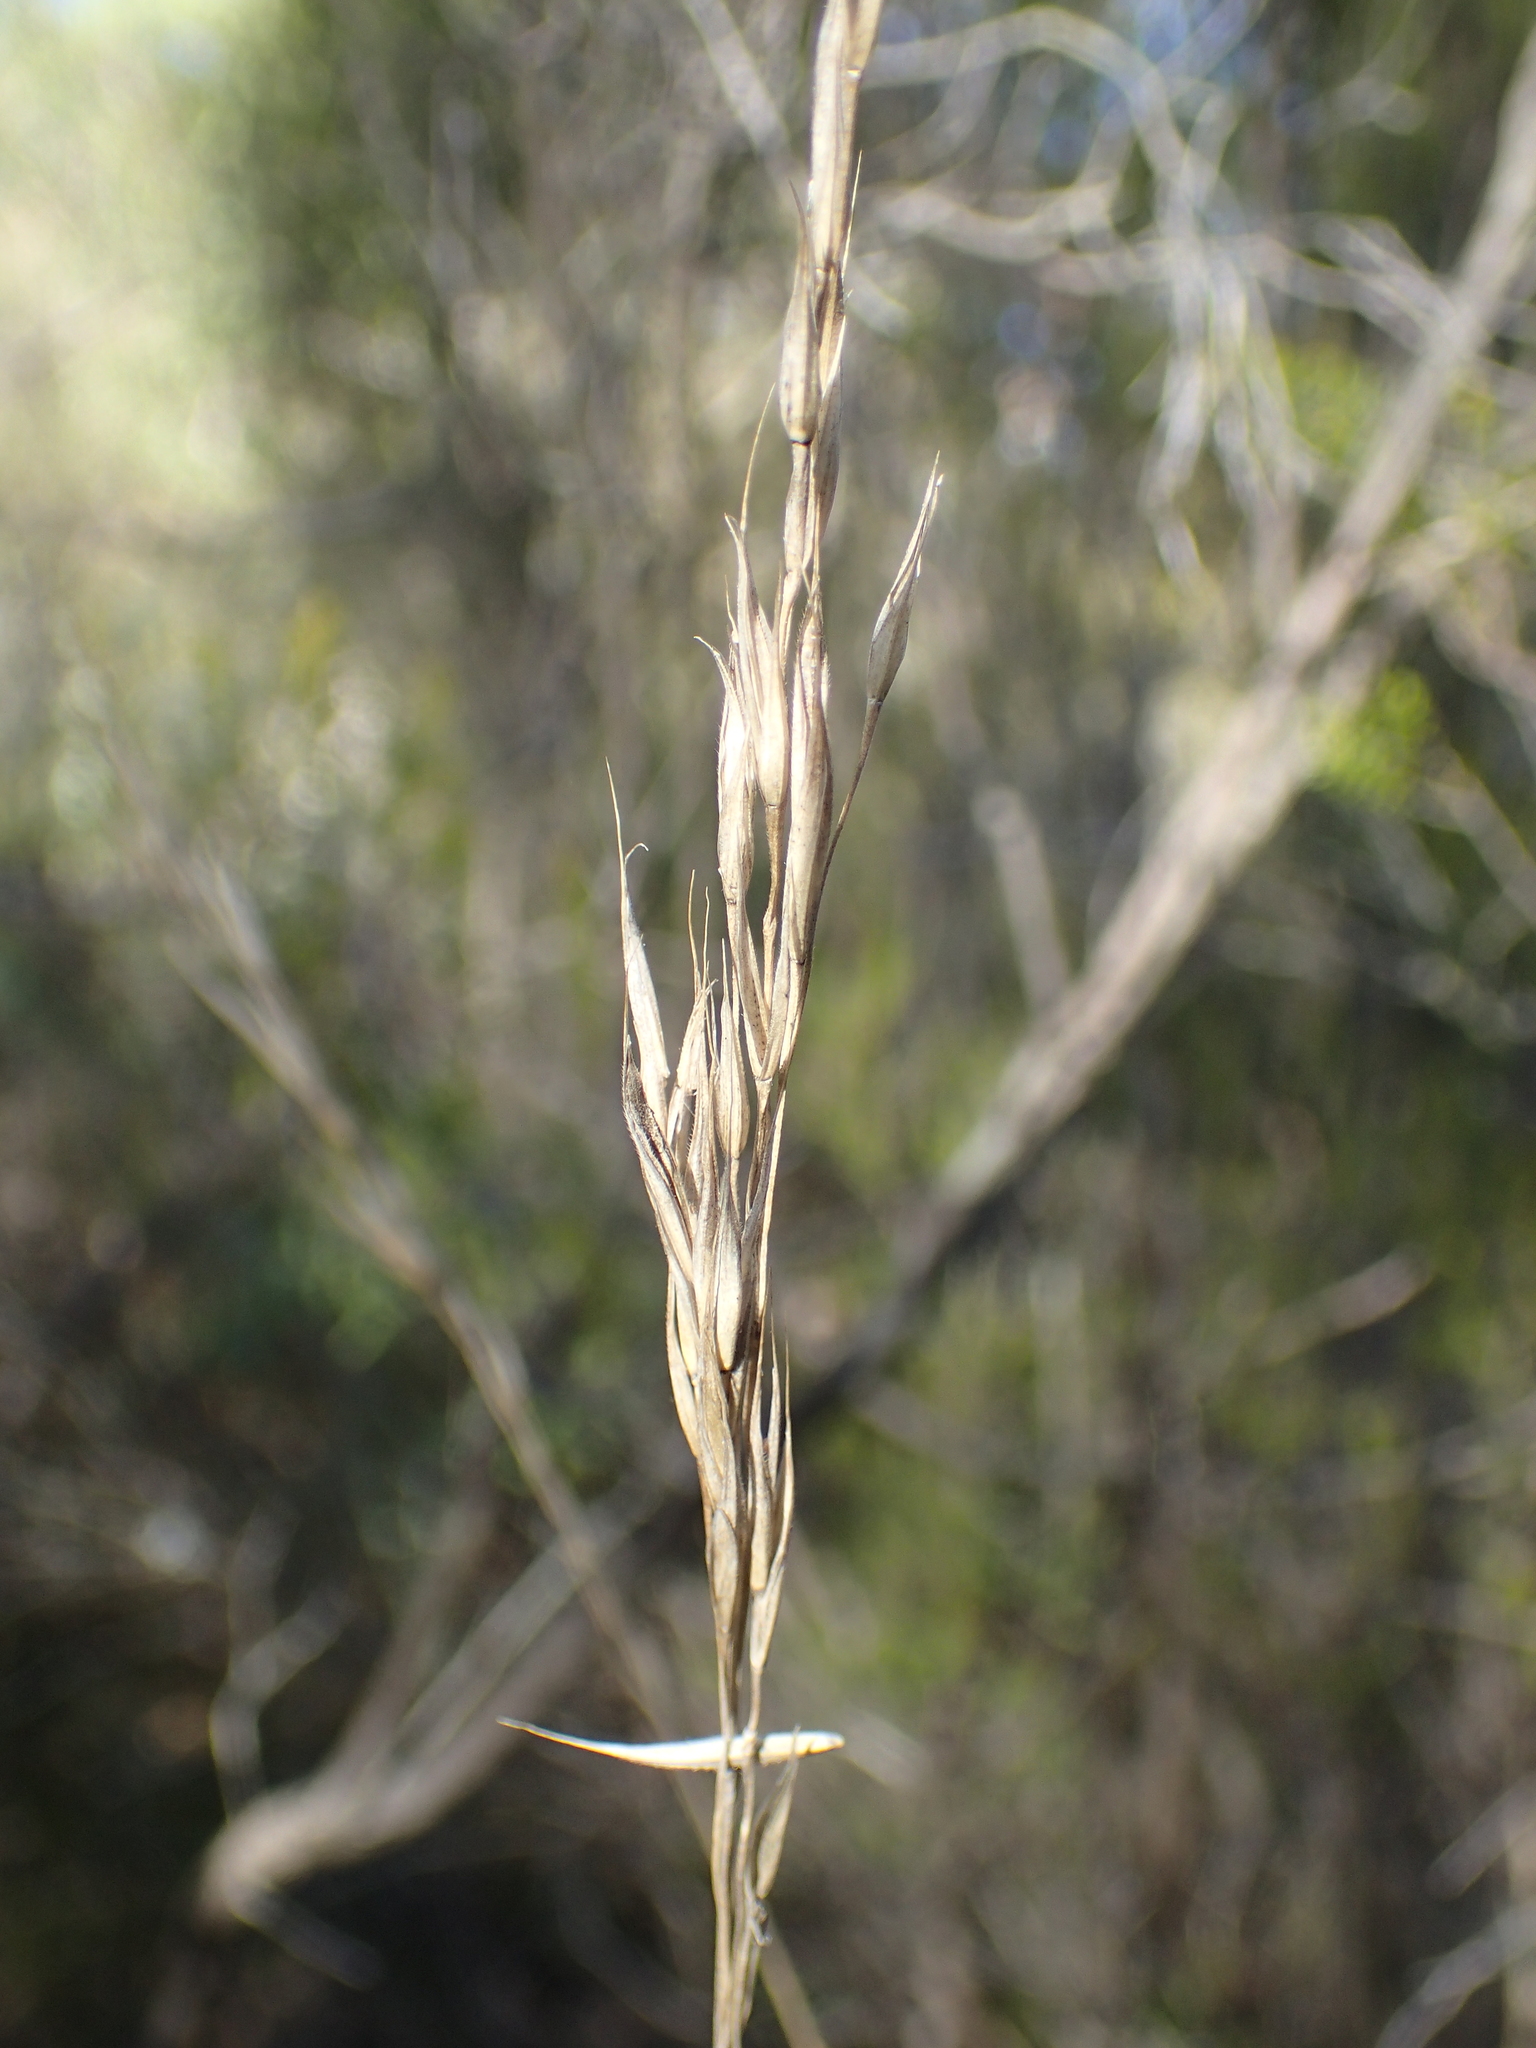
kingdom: Plantae
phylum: Tracheophyta
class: Liliopsida
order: Poales
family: Poaceae
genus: Bromus
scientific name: Bromus erectus
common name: Erect brome
